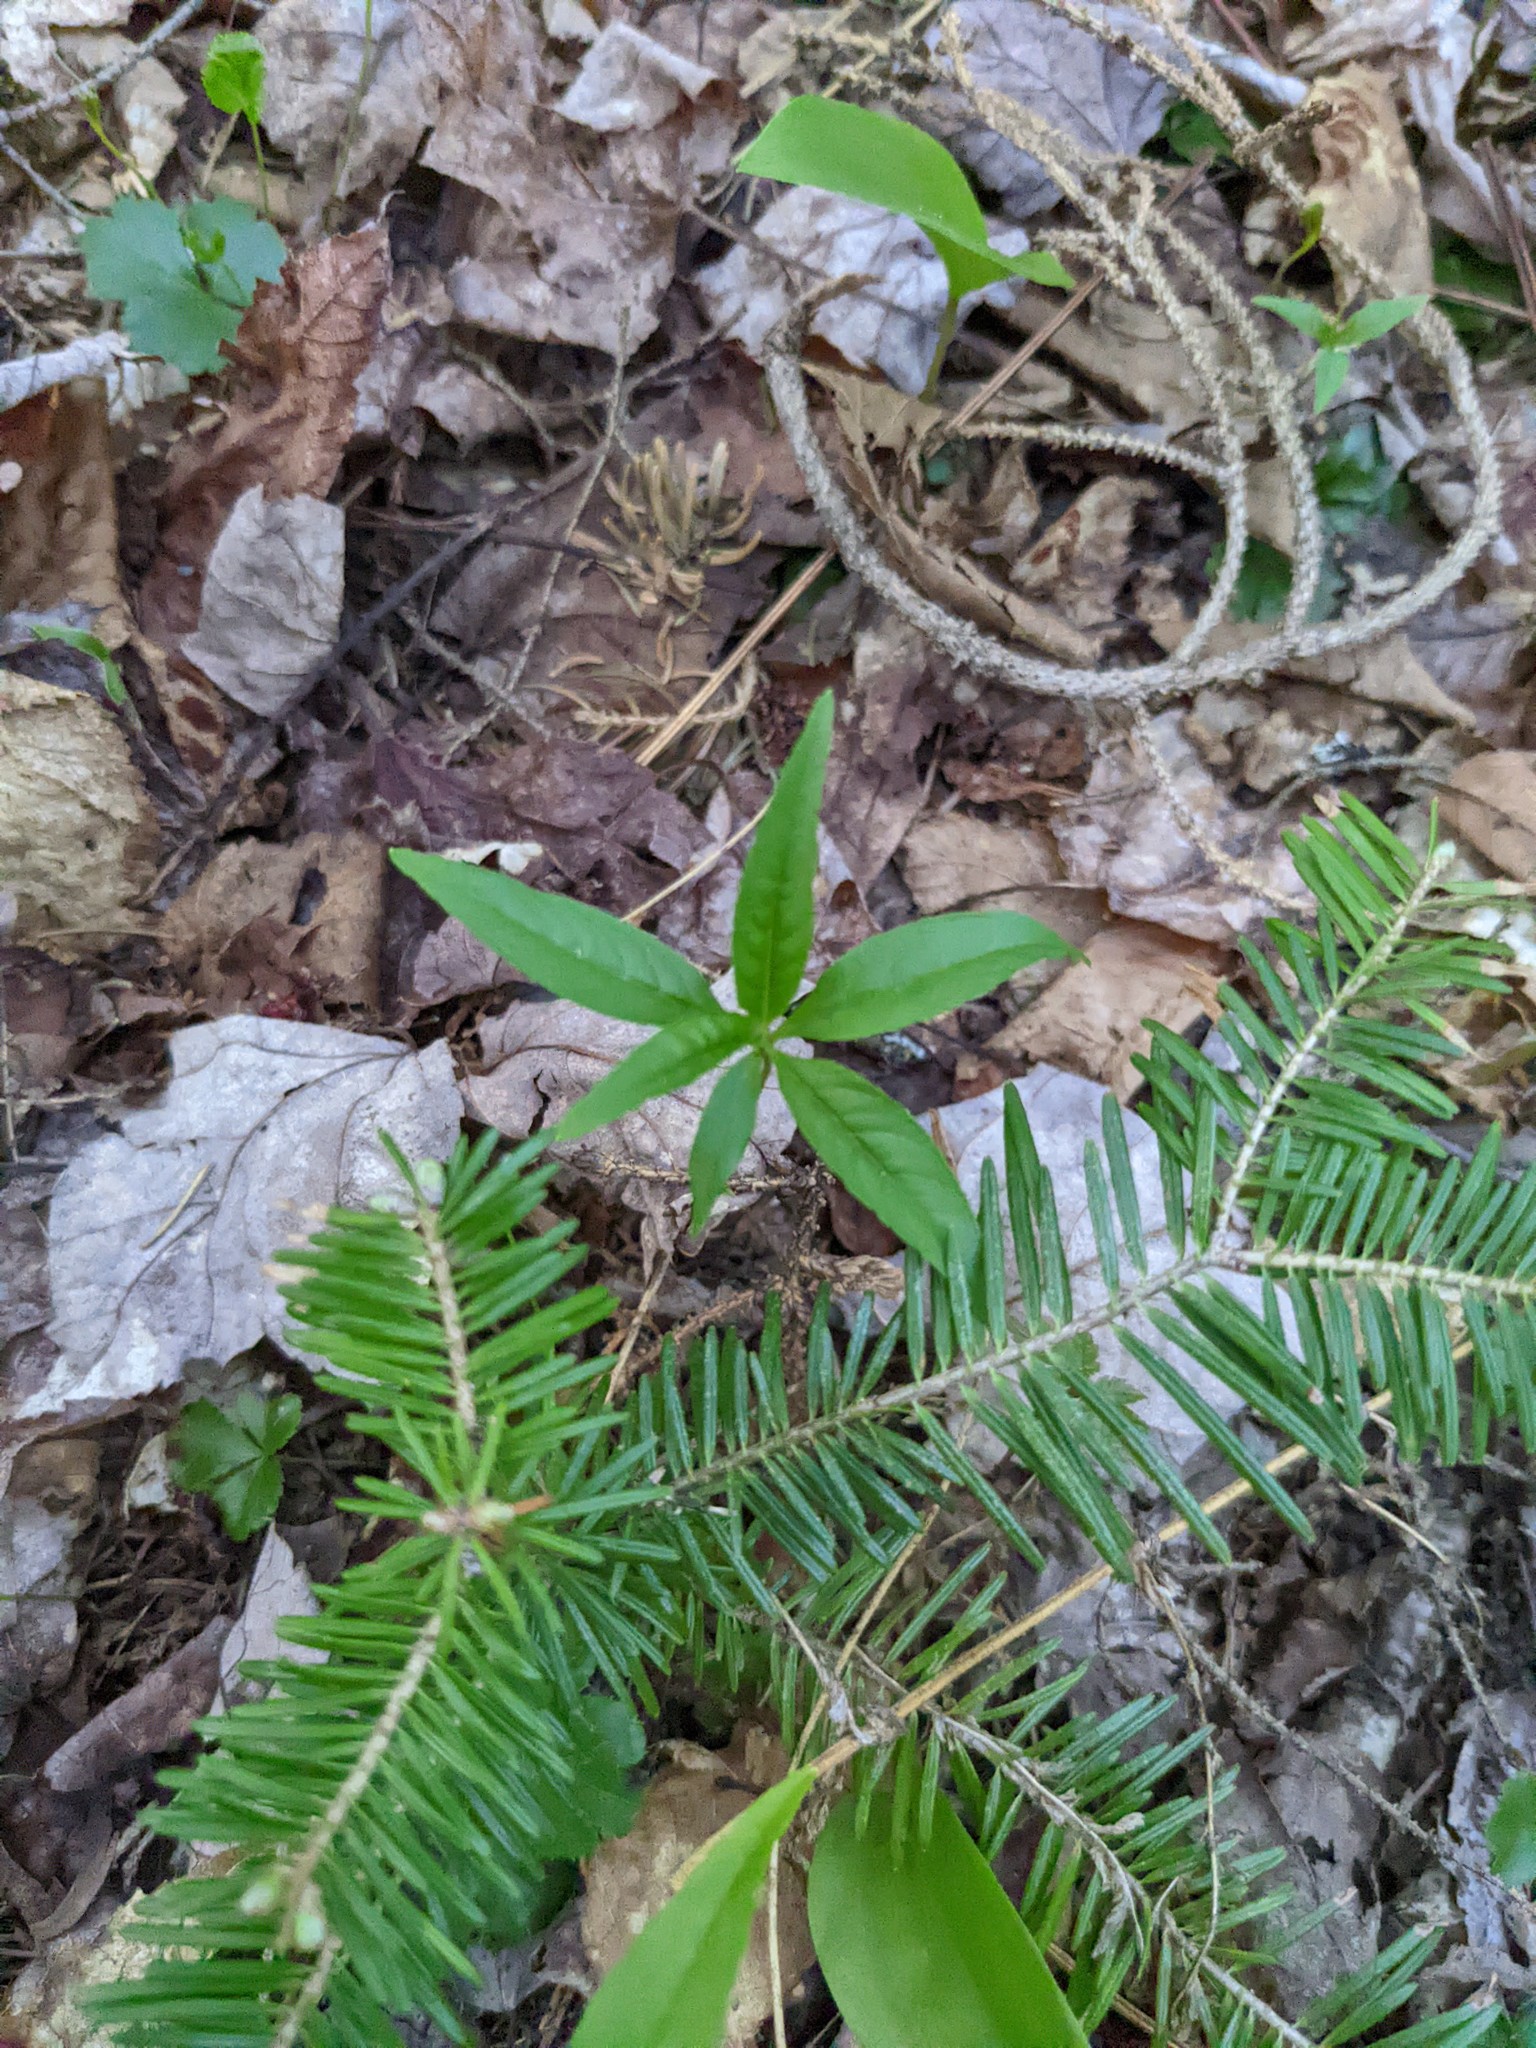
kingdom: Plantae
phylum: Tracheophyta
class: Magnoliopsida
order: Ericales
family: Primulaceae
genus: Lysimachia
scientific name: Lysimachia borealis
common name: American starflower
